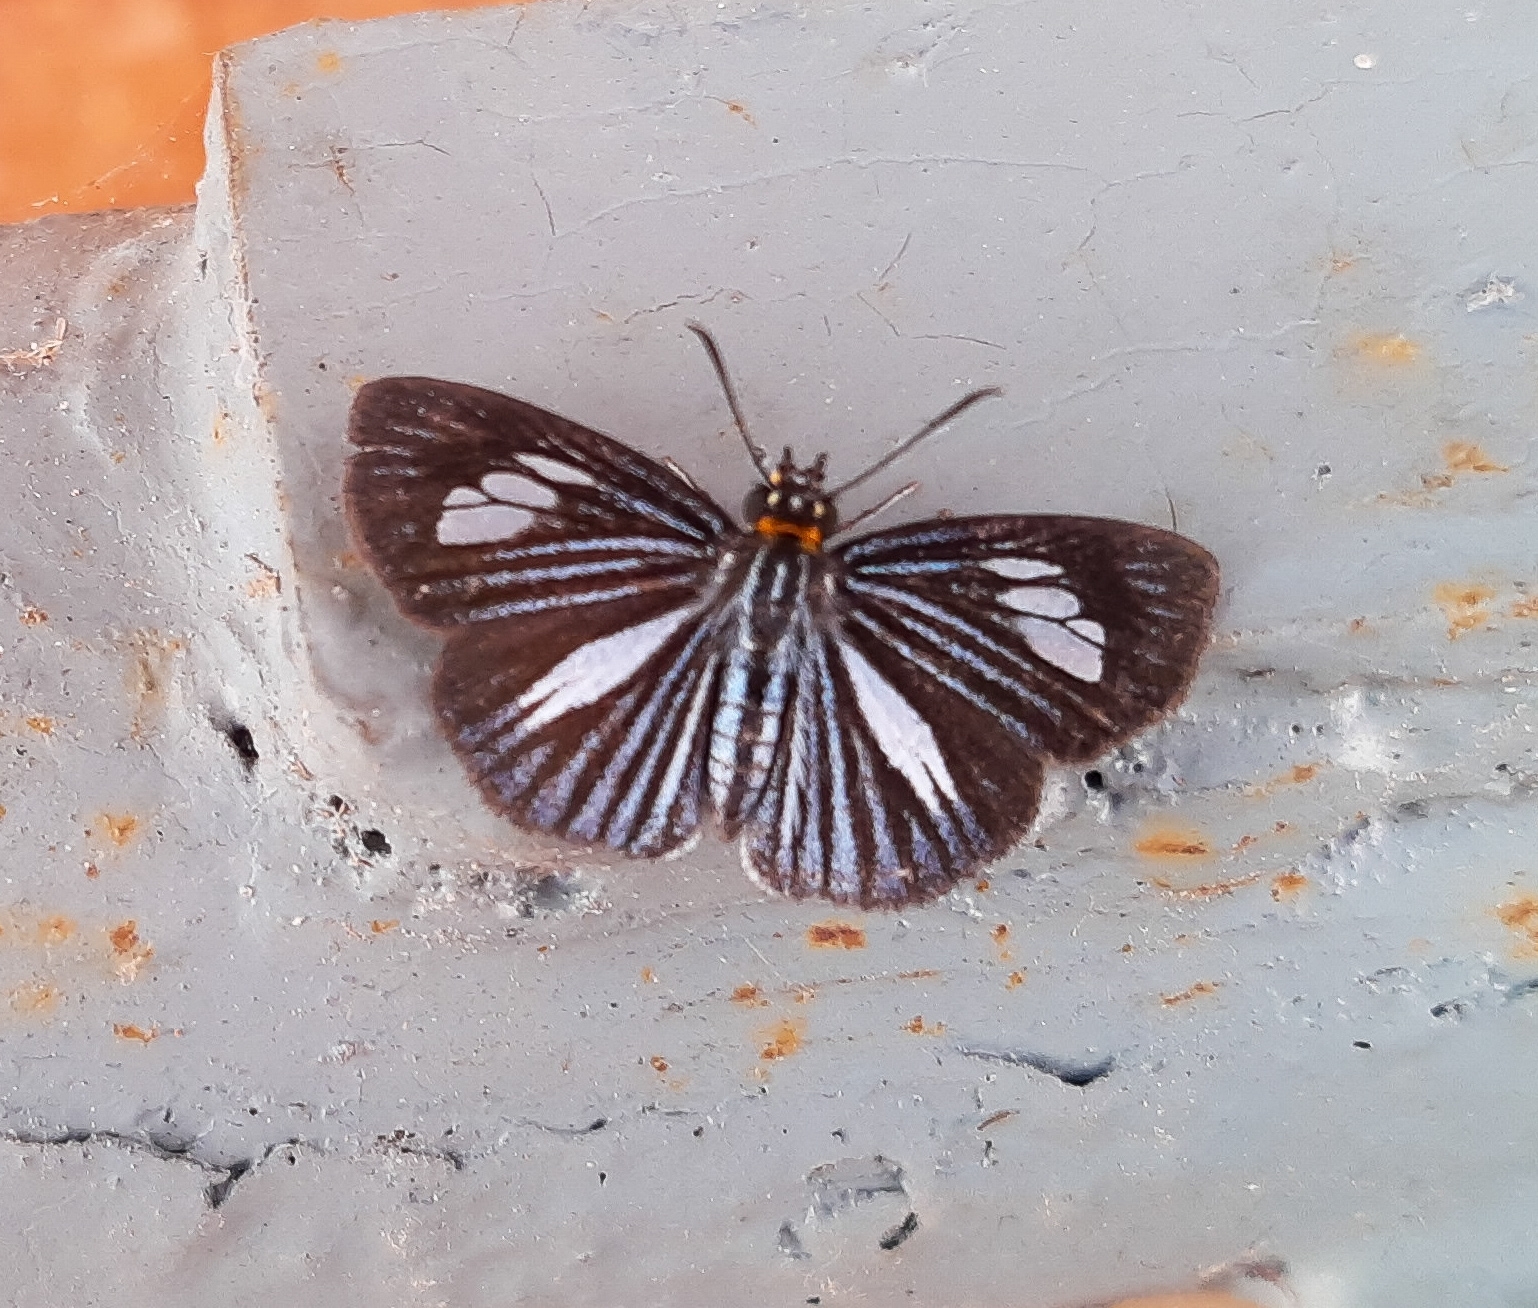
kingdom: Animalia
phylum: Arthropoda
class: Insecta
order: Lepidoptera
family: Hesperiidae
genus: Pythonides
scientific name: Pythonides lancea
